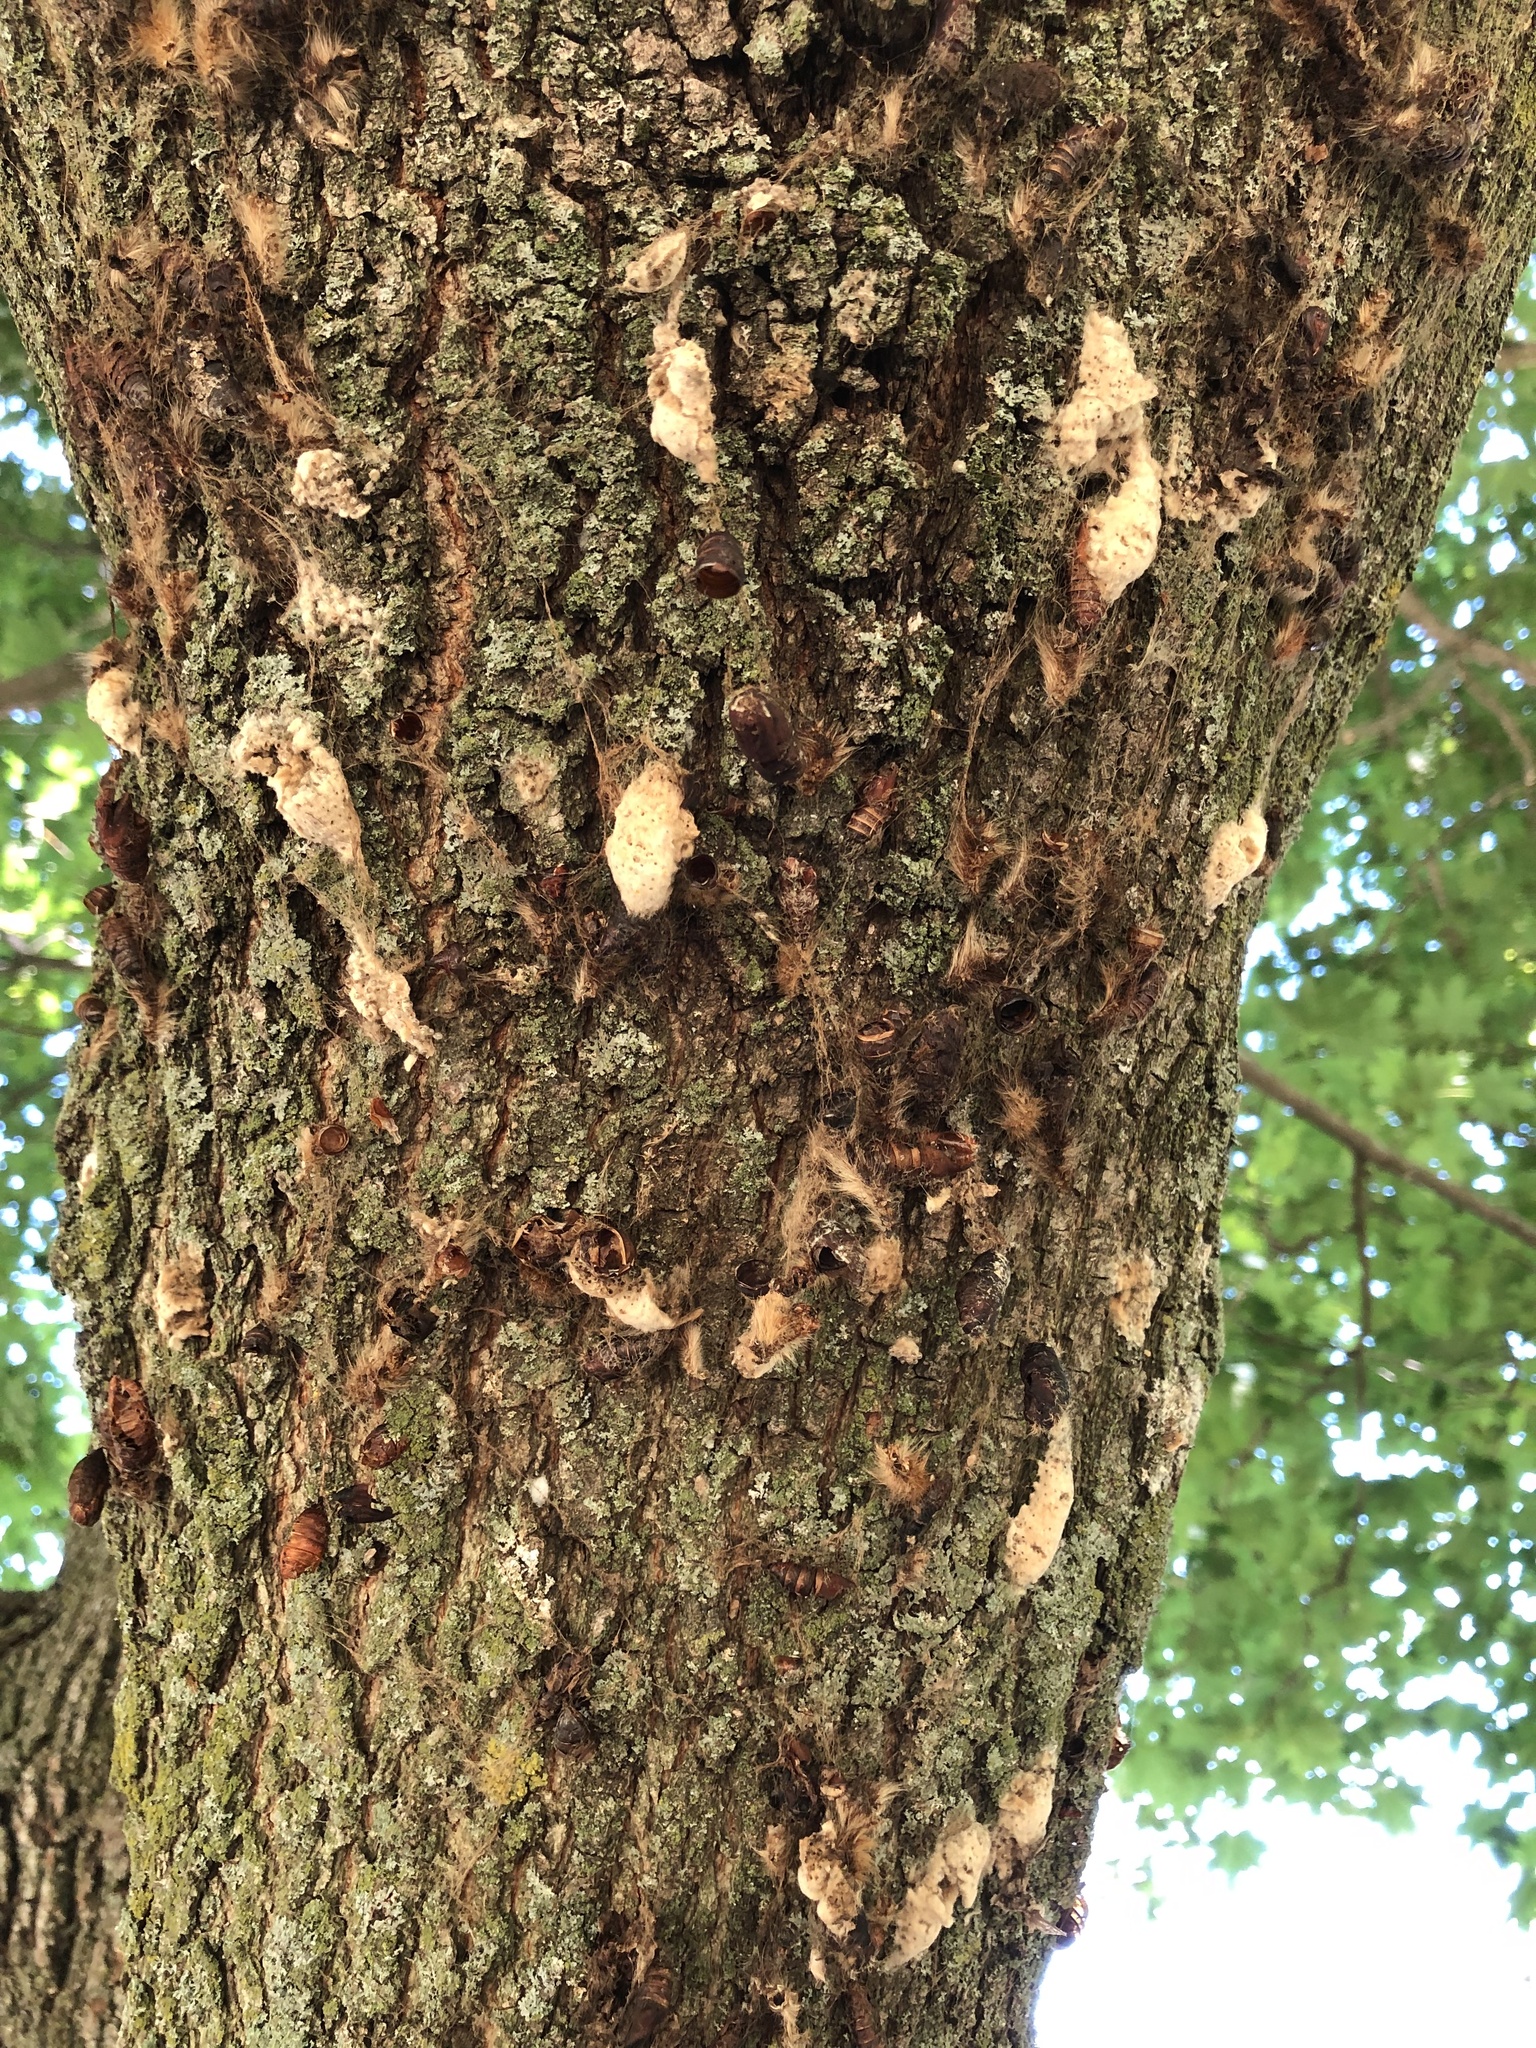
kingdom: Animalia
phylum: Arthropoda
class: Insecta
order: Lepidoptera
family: Erebidae
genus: Lymantria
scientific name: Lymantria dispar
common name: Gypsy moth
